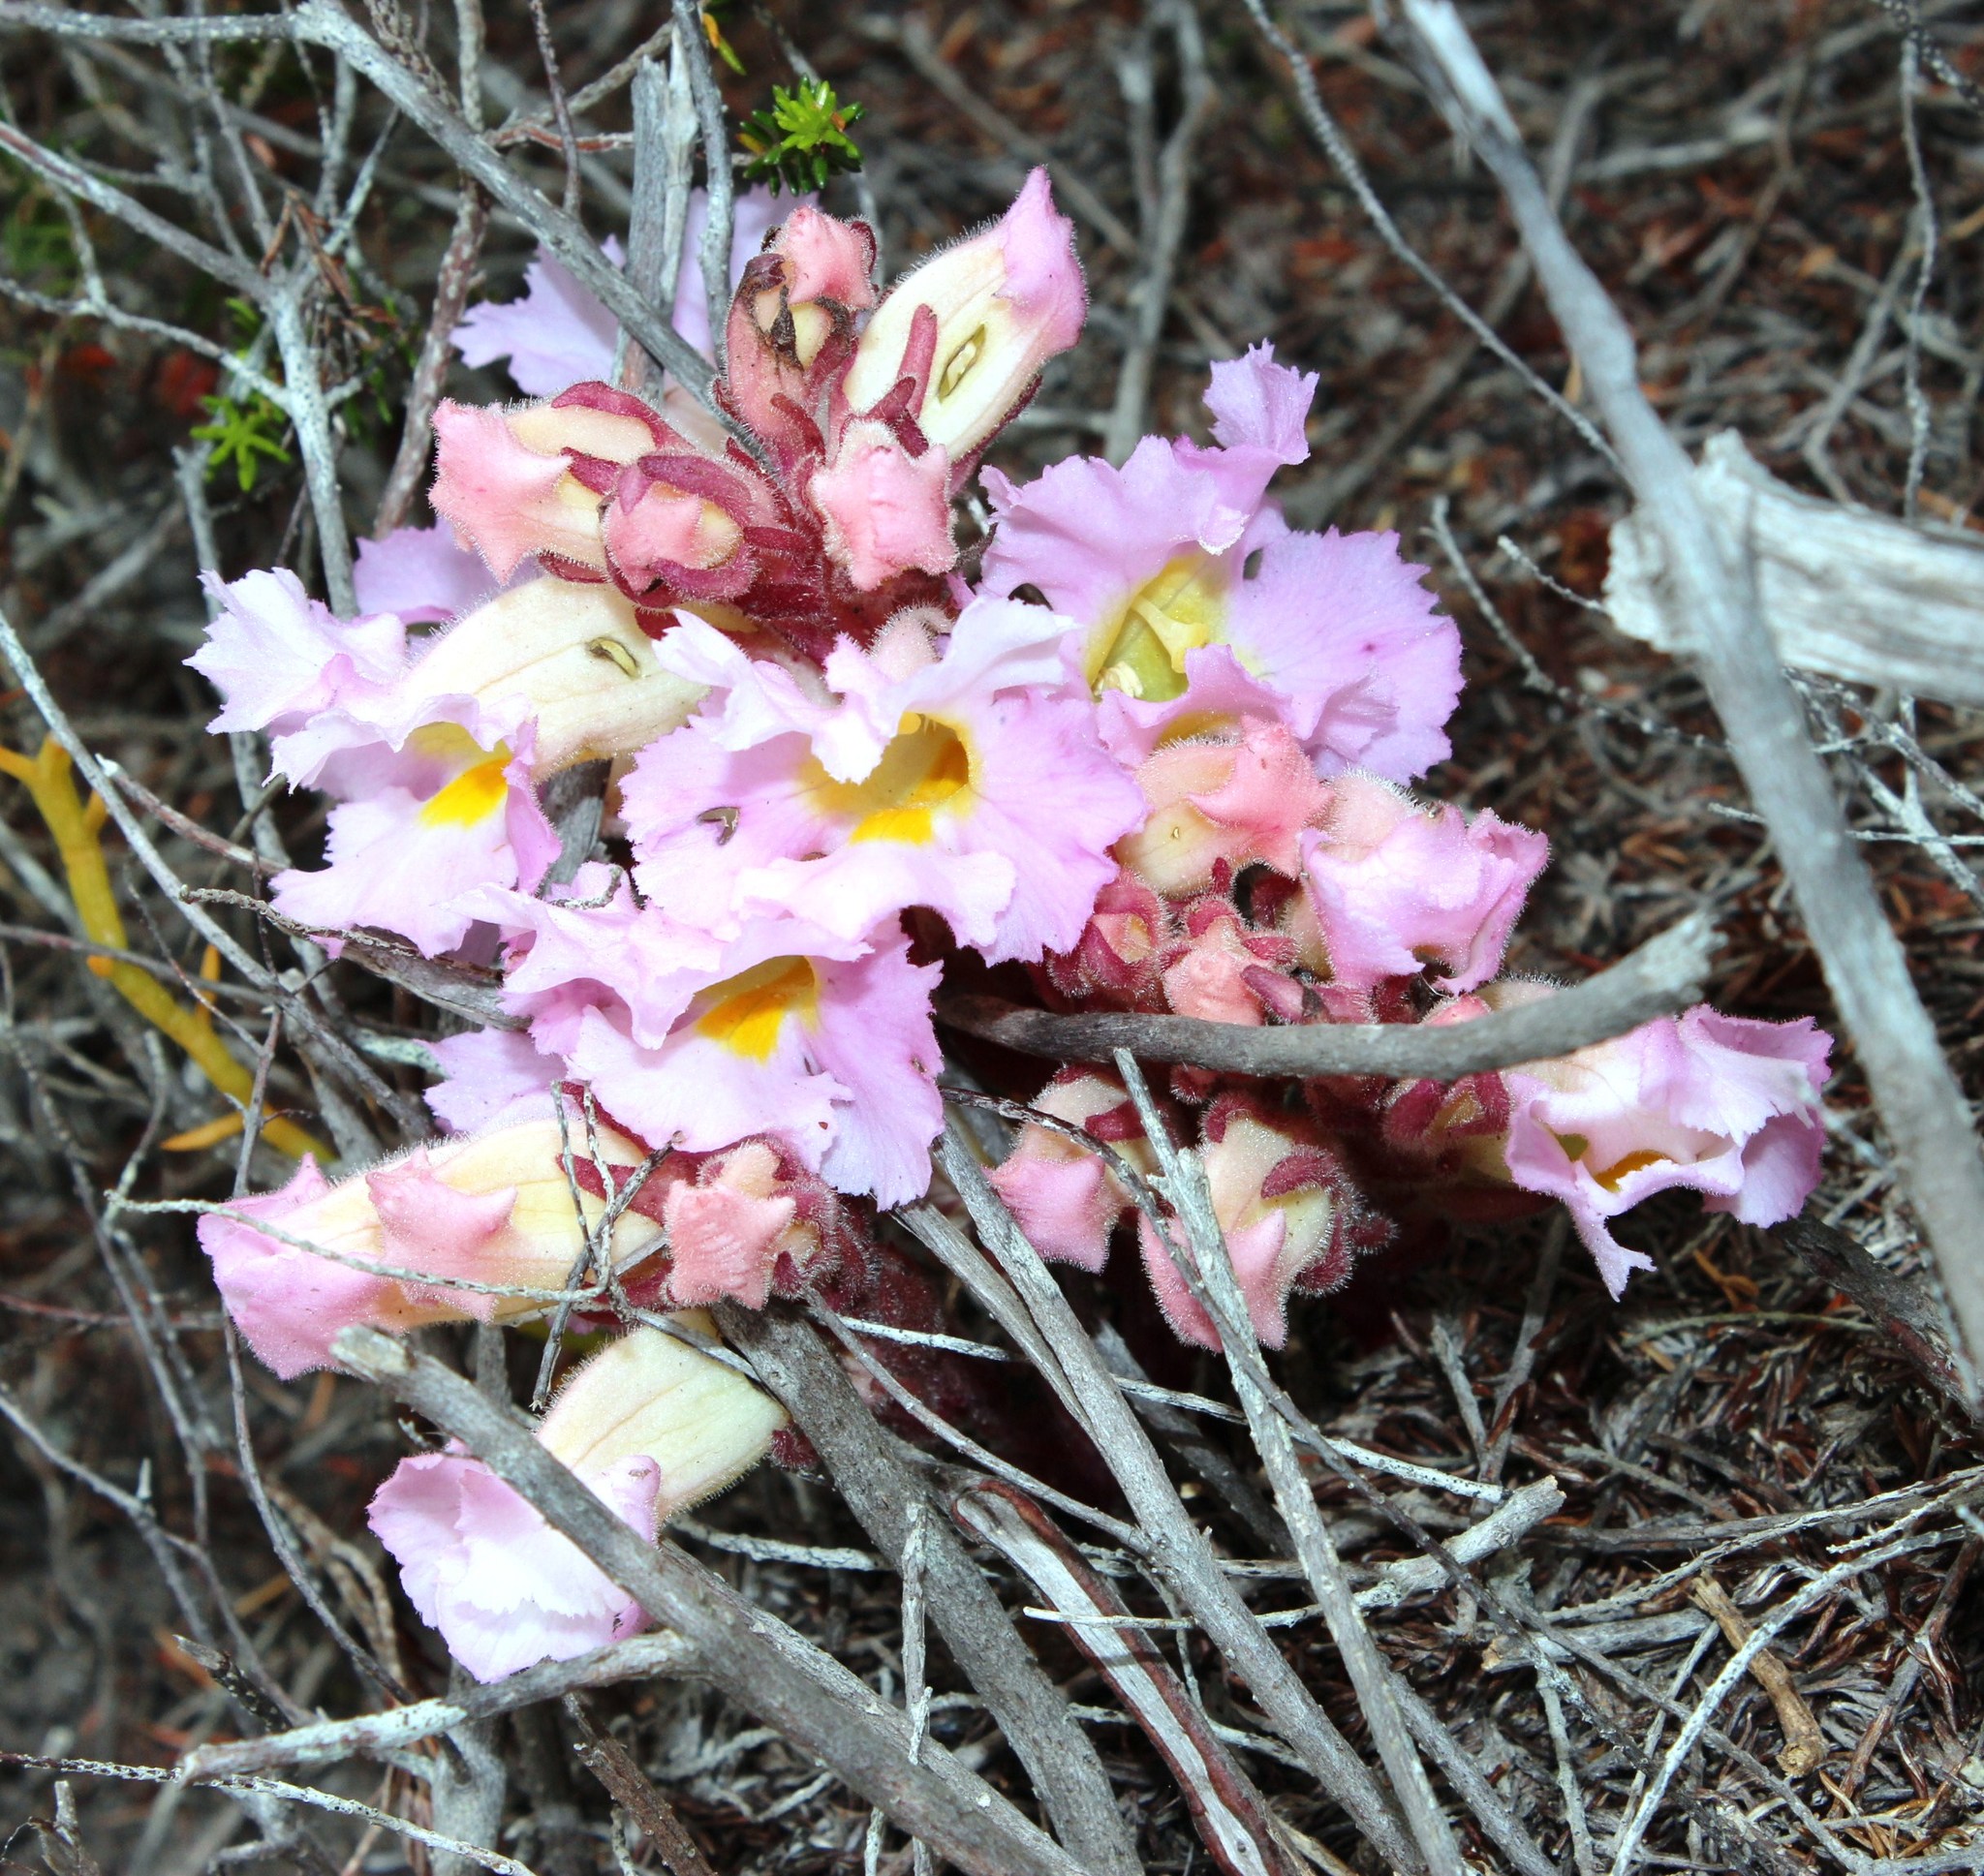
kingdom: Plantae
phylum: Tracheophyta
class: Magnoliopsida
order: Lamiales
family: Orobanchaceae
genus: Harveya
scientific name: Harveya purpurea
